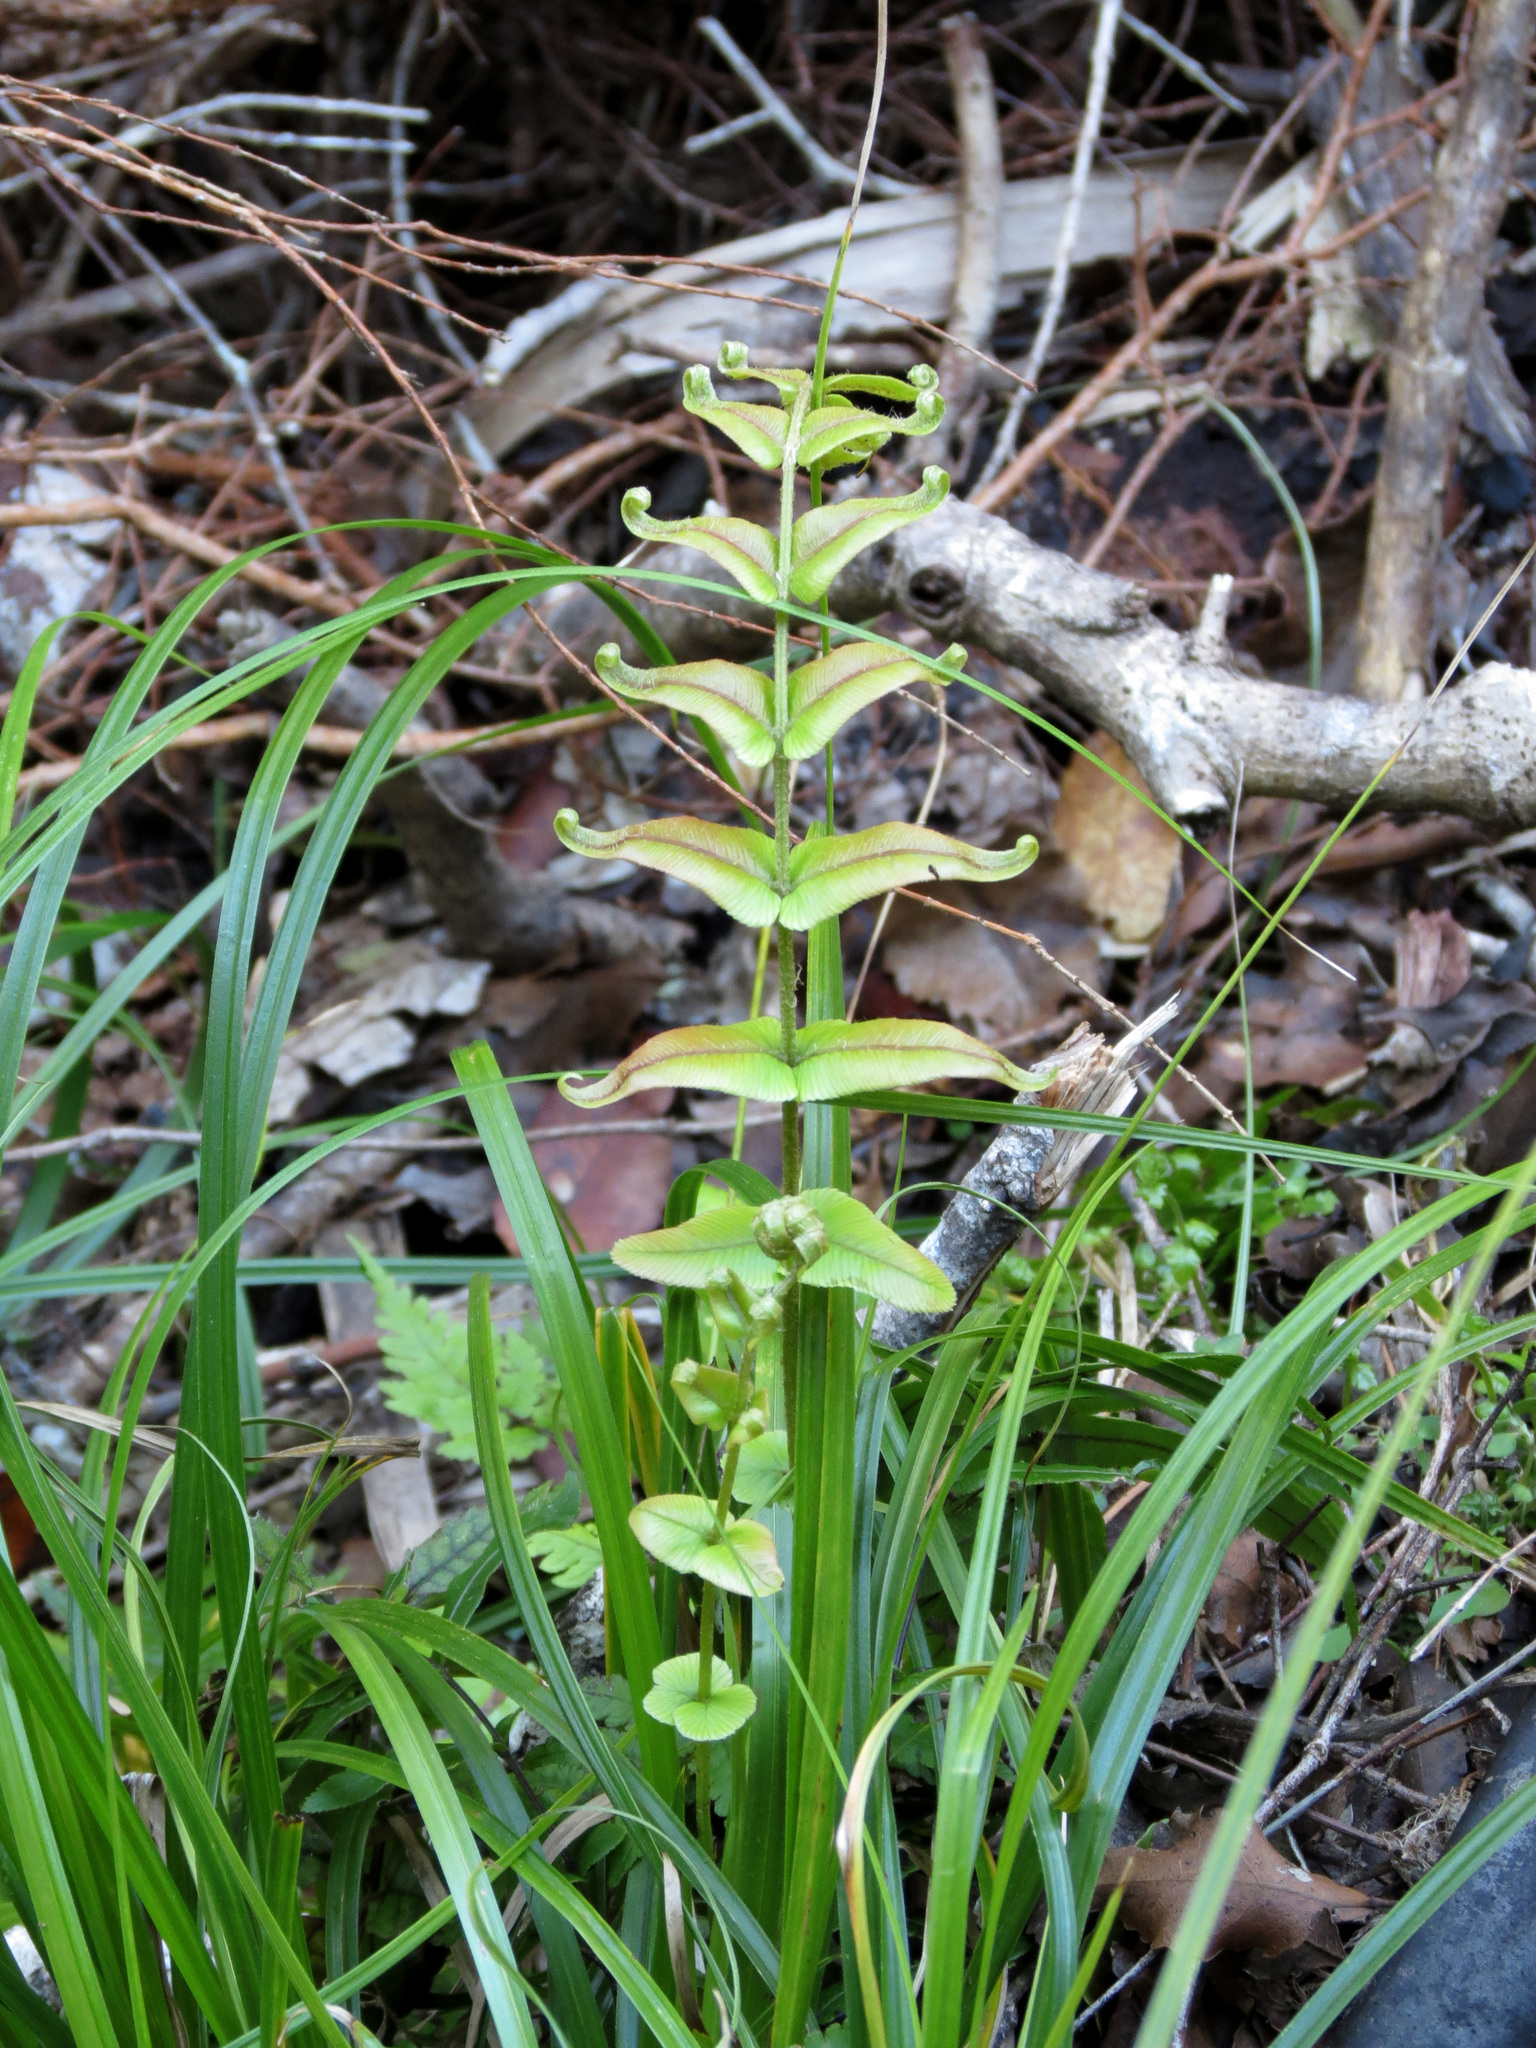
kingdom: Plantae
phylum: Tracheophyta
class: Polypodiopsida
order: Polypodiales
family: Blechnaceae
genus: Parablechnum
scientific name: Parablechnum novae-zelandiae
